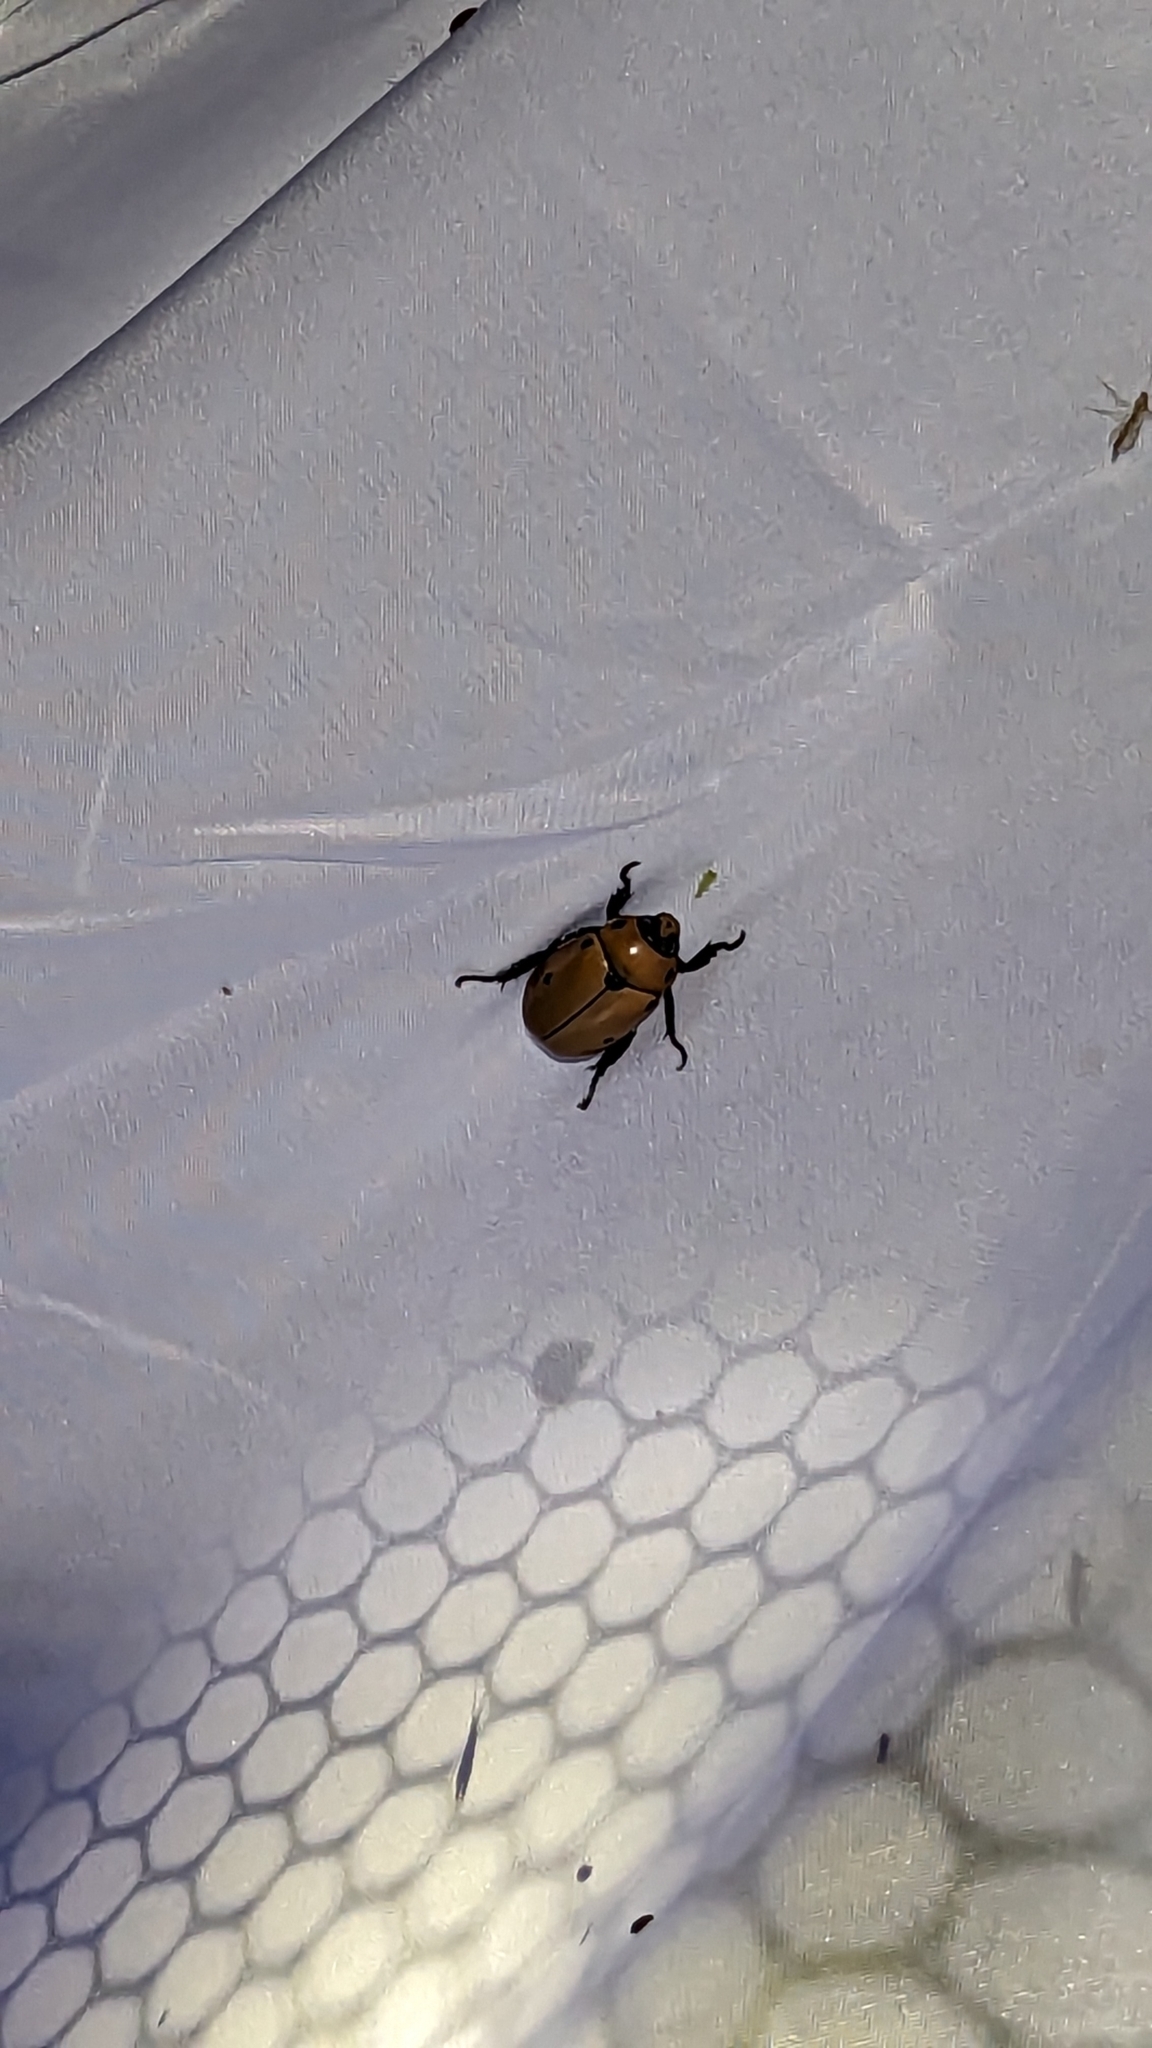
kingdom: Animalia
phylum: Arthropoda
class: Insecta
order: Coleoptera
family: Scarabaeidae
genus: Pelidnota
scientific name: Pelidnota punctata
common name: Grapevine beetle
